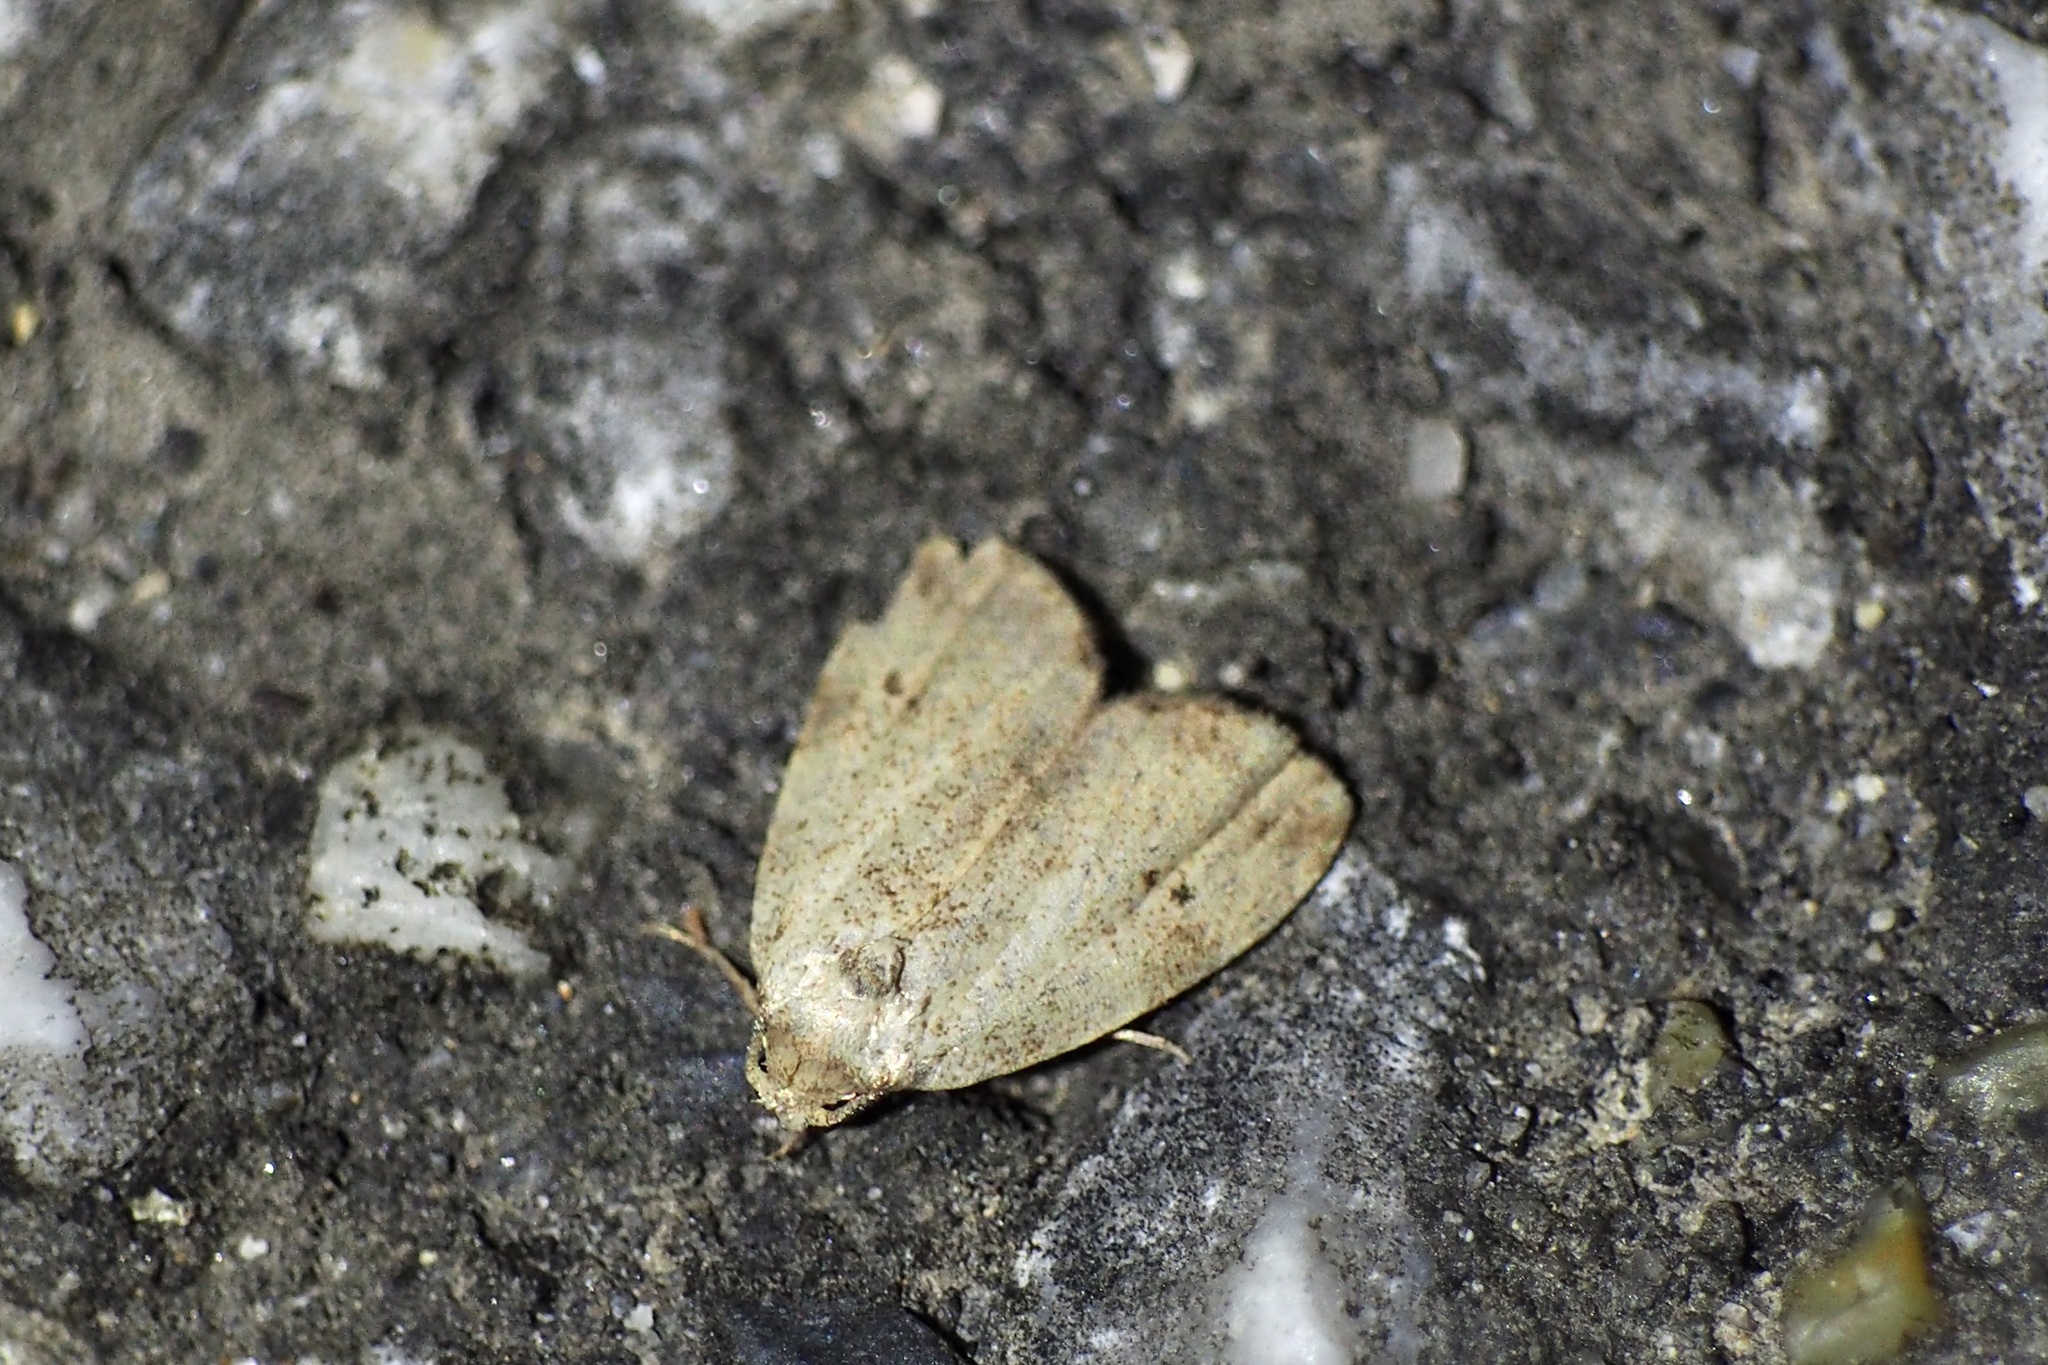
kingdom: Animalia
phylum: Arthropoda
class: Insecta
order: Lepidoptera
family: Erebidae
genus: Neachrostia
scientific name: Neachrostia
